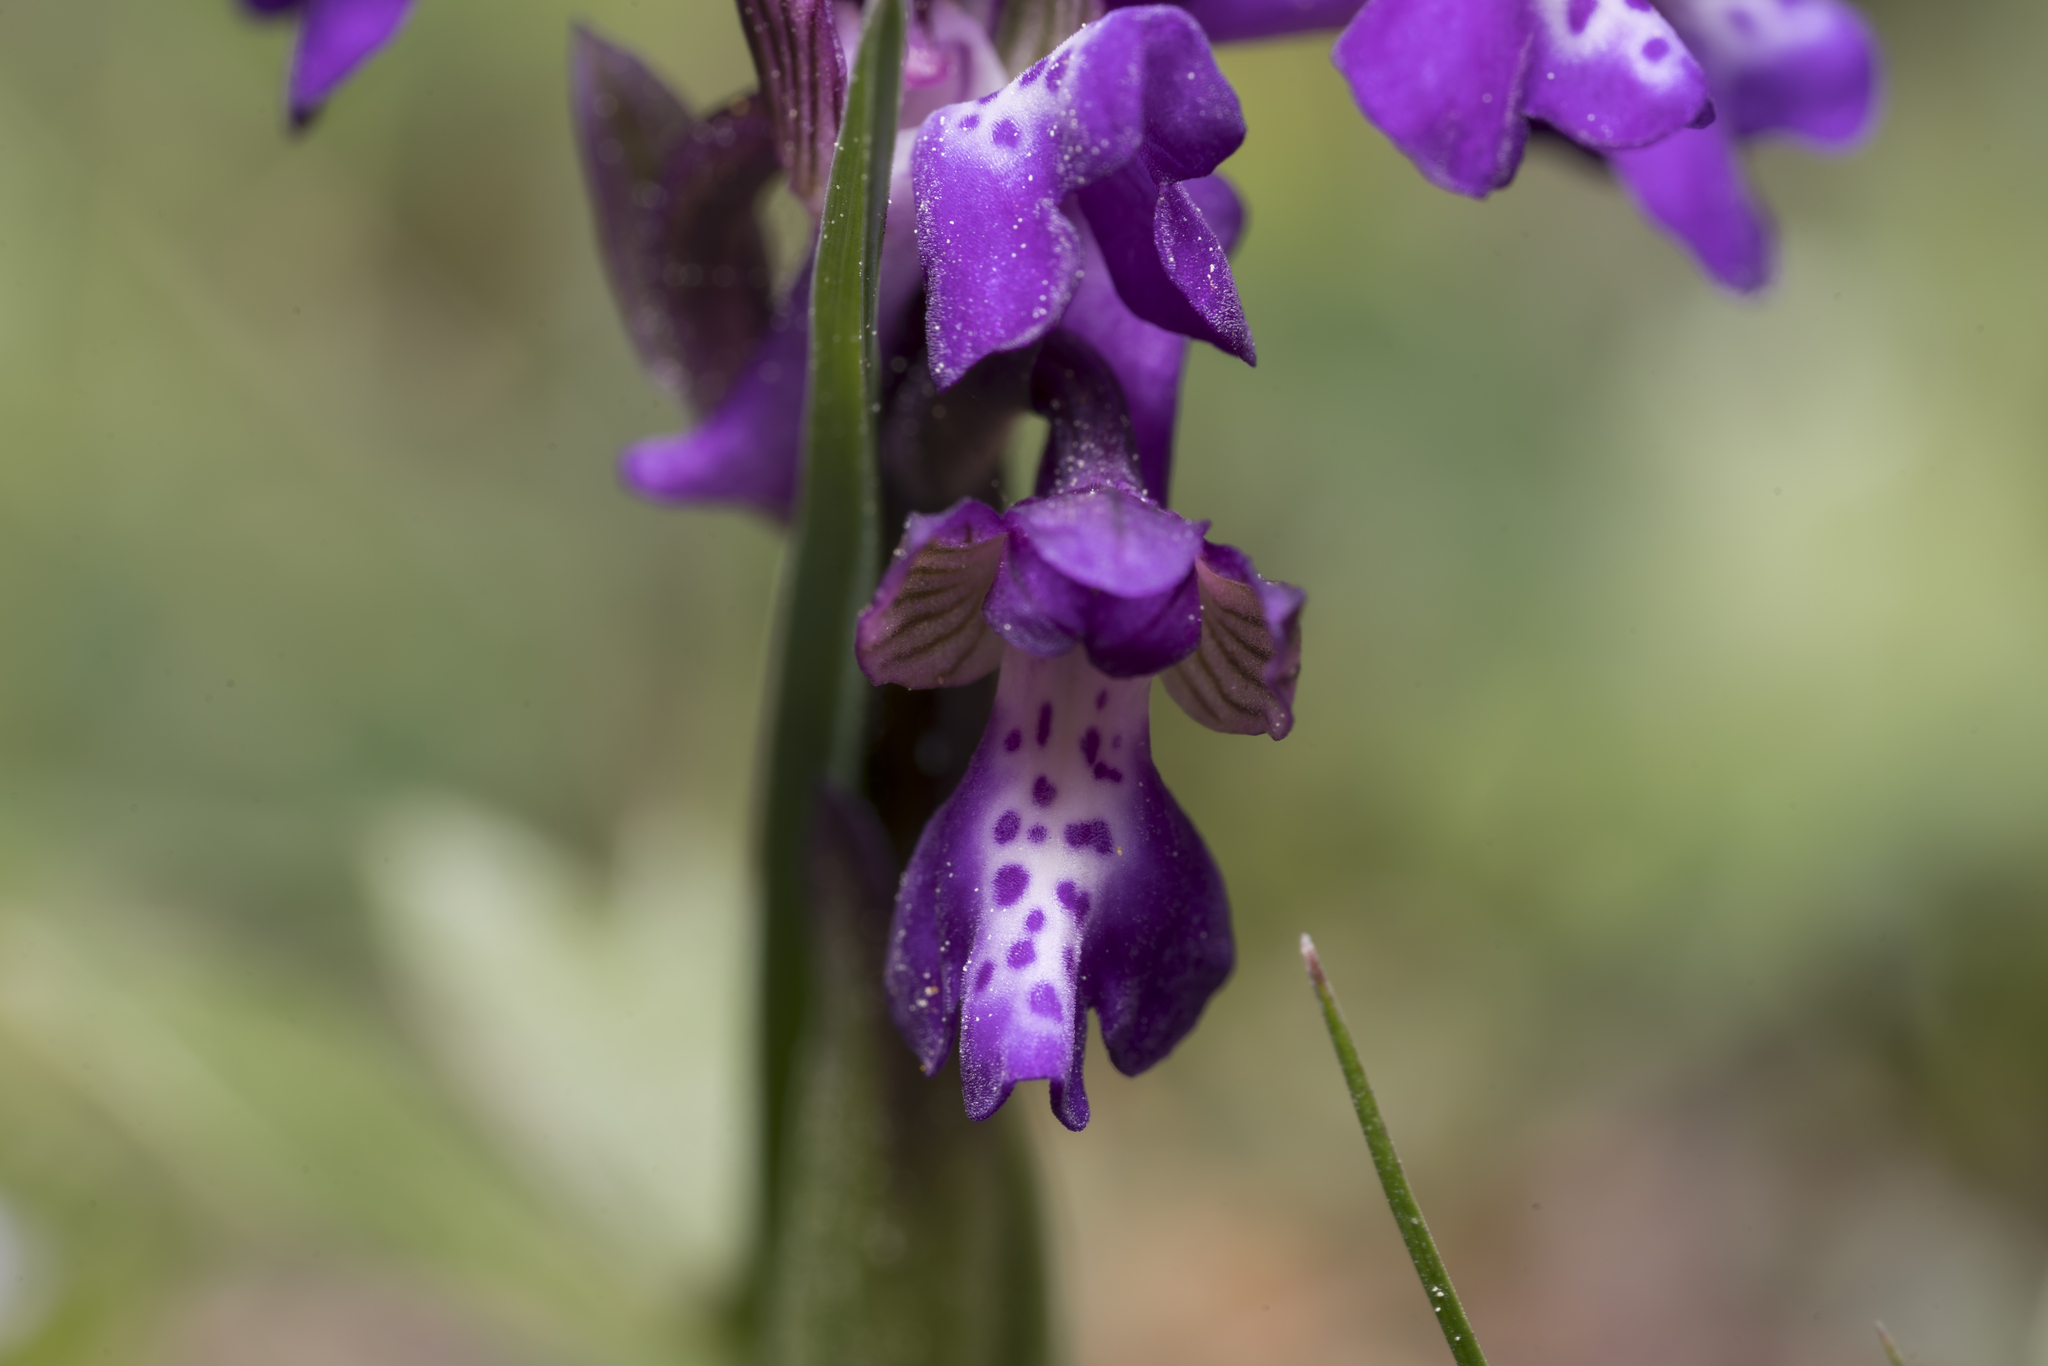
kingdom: Plantae
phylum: Tracheophyta
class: Liliopsida
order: Asparagales
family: Orchidaceae
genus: Anacamptis
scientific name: Anacamptis morio
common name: Green-winged orchid
